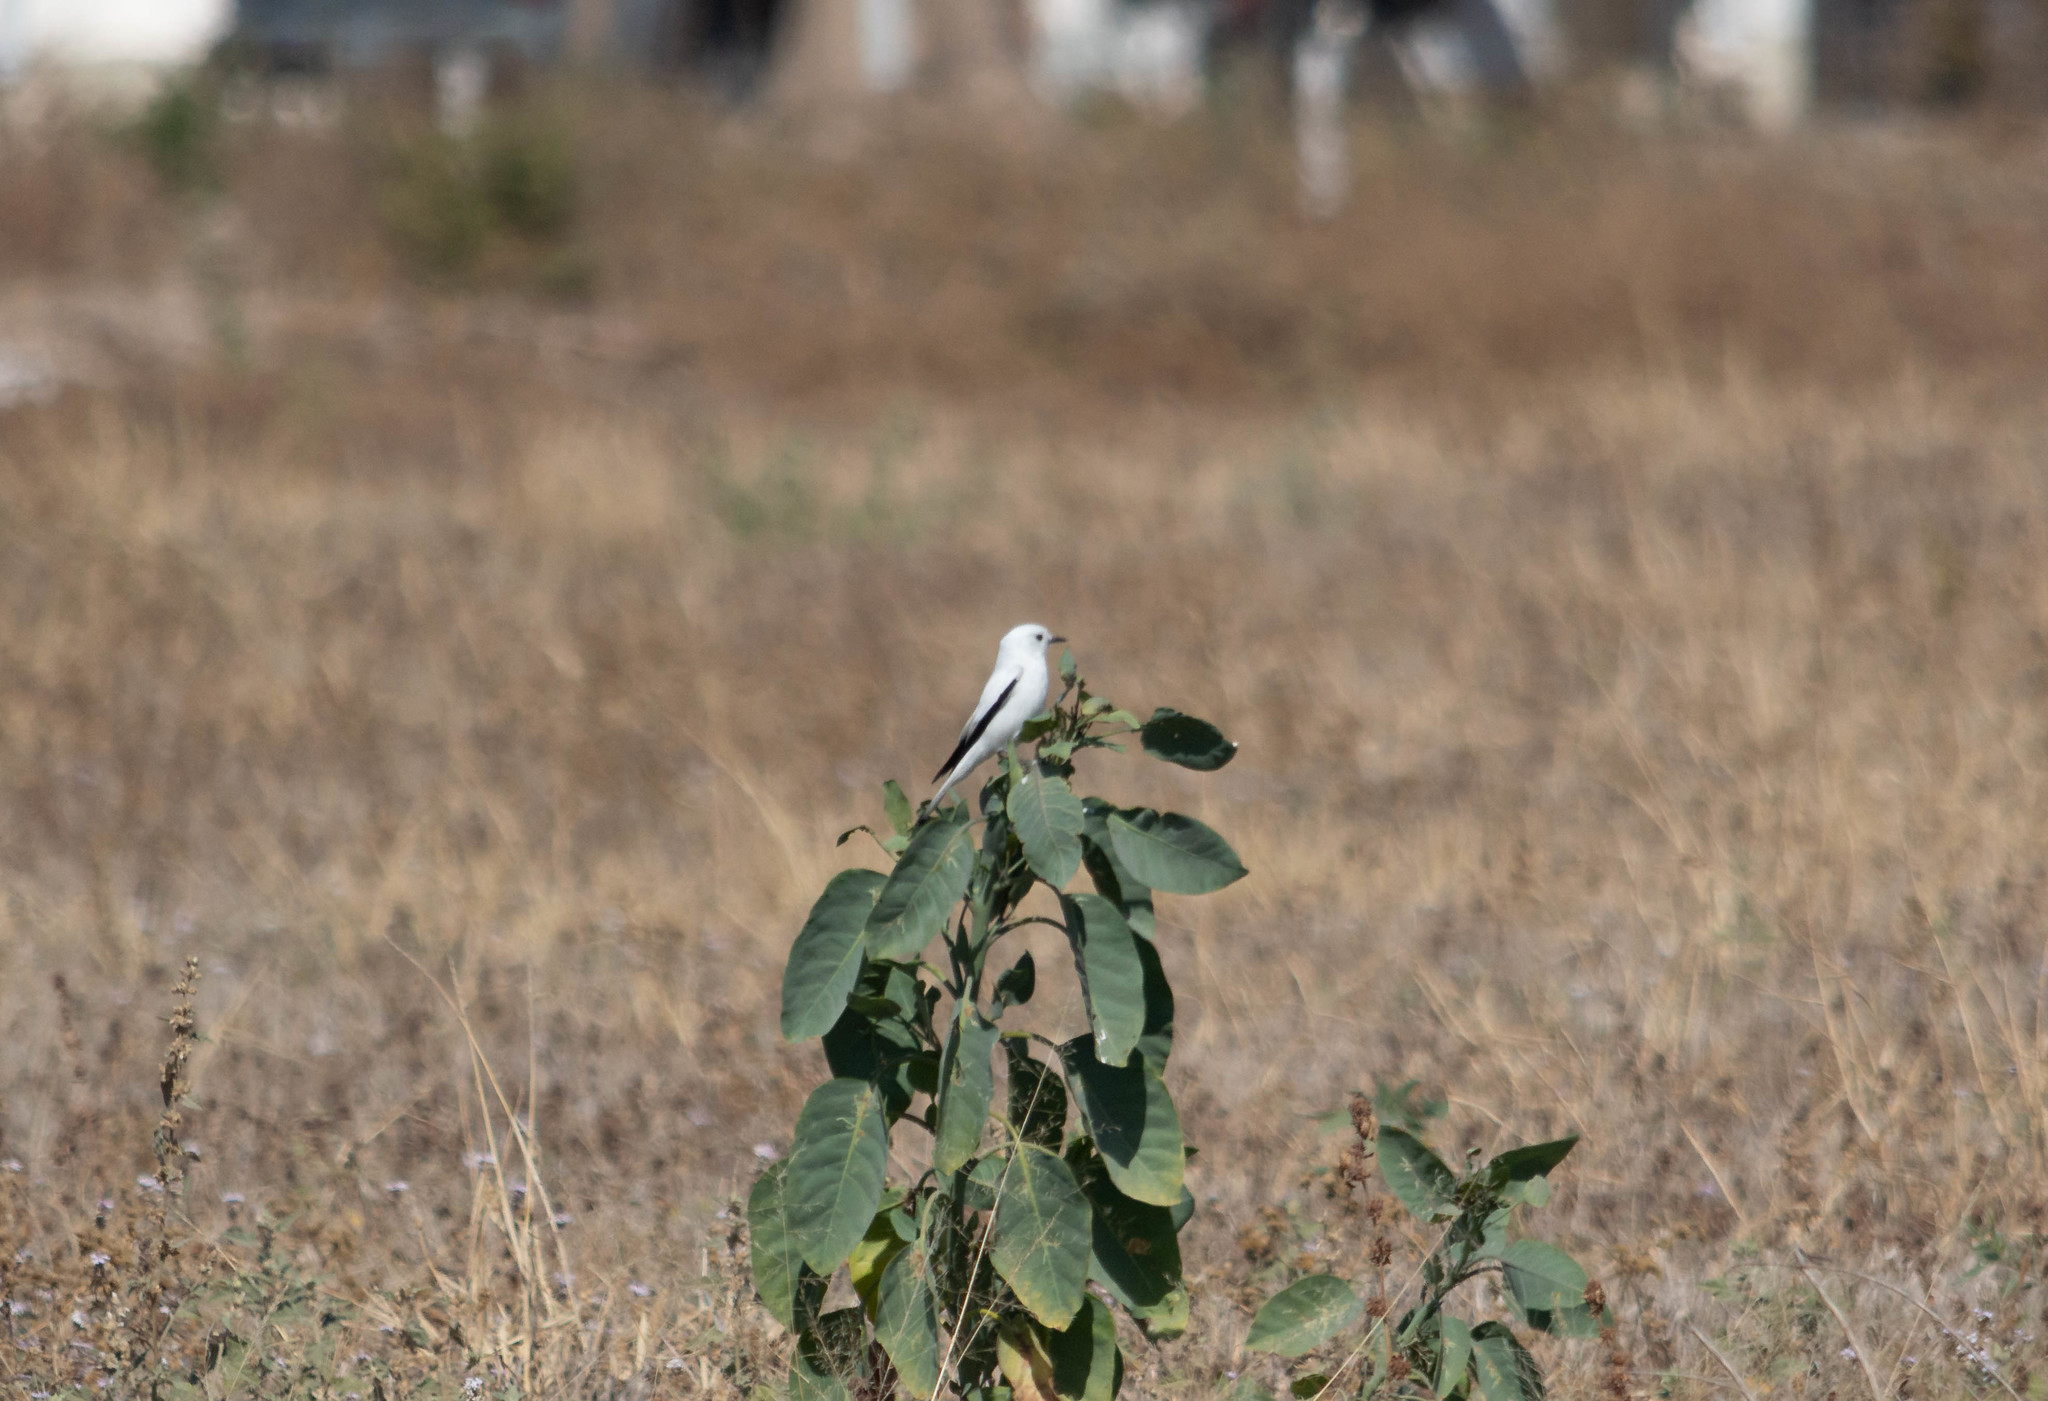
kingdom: Animalia
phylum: Chordata
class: Aves
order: Passeriformes
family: Tyrannidae
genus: Xolmis
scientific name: Xolmis irupero
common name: White monjita
